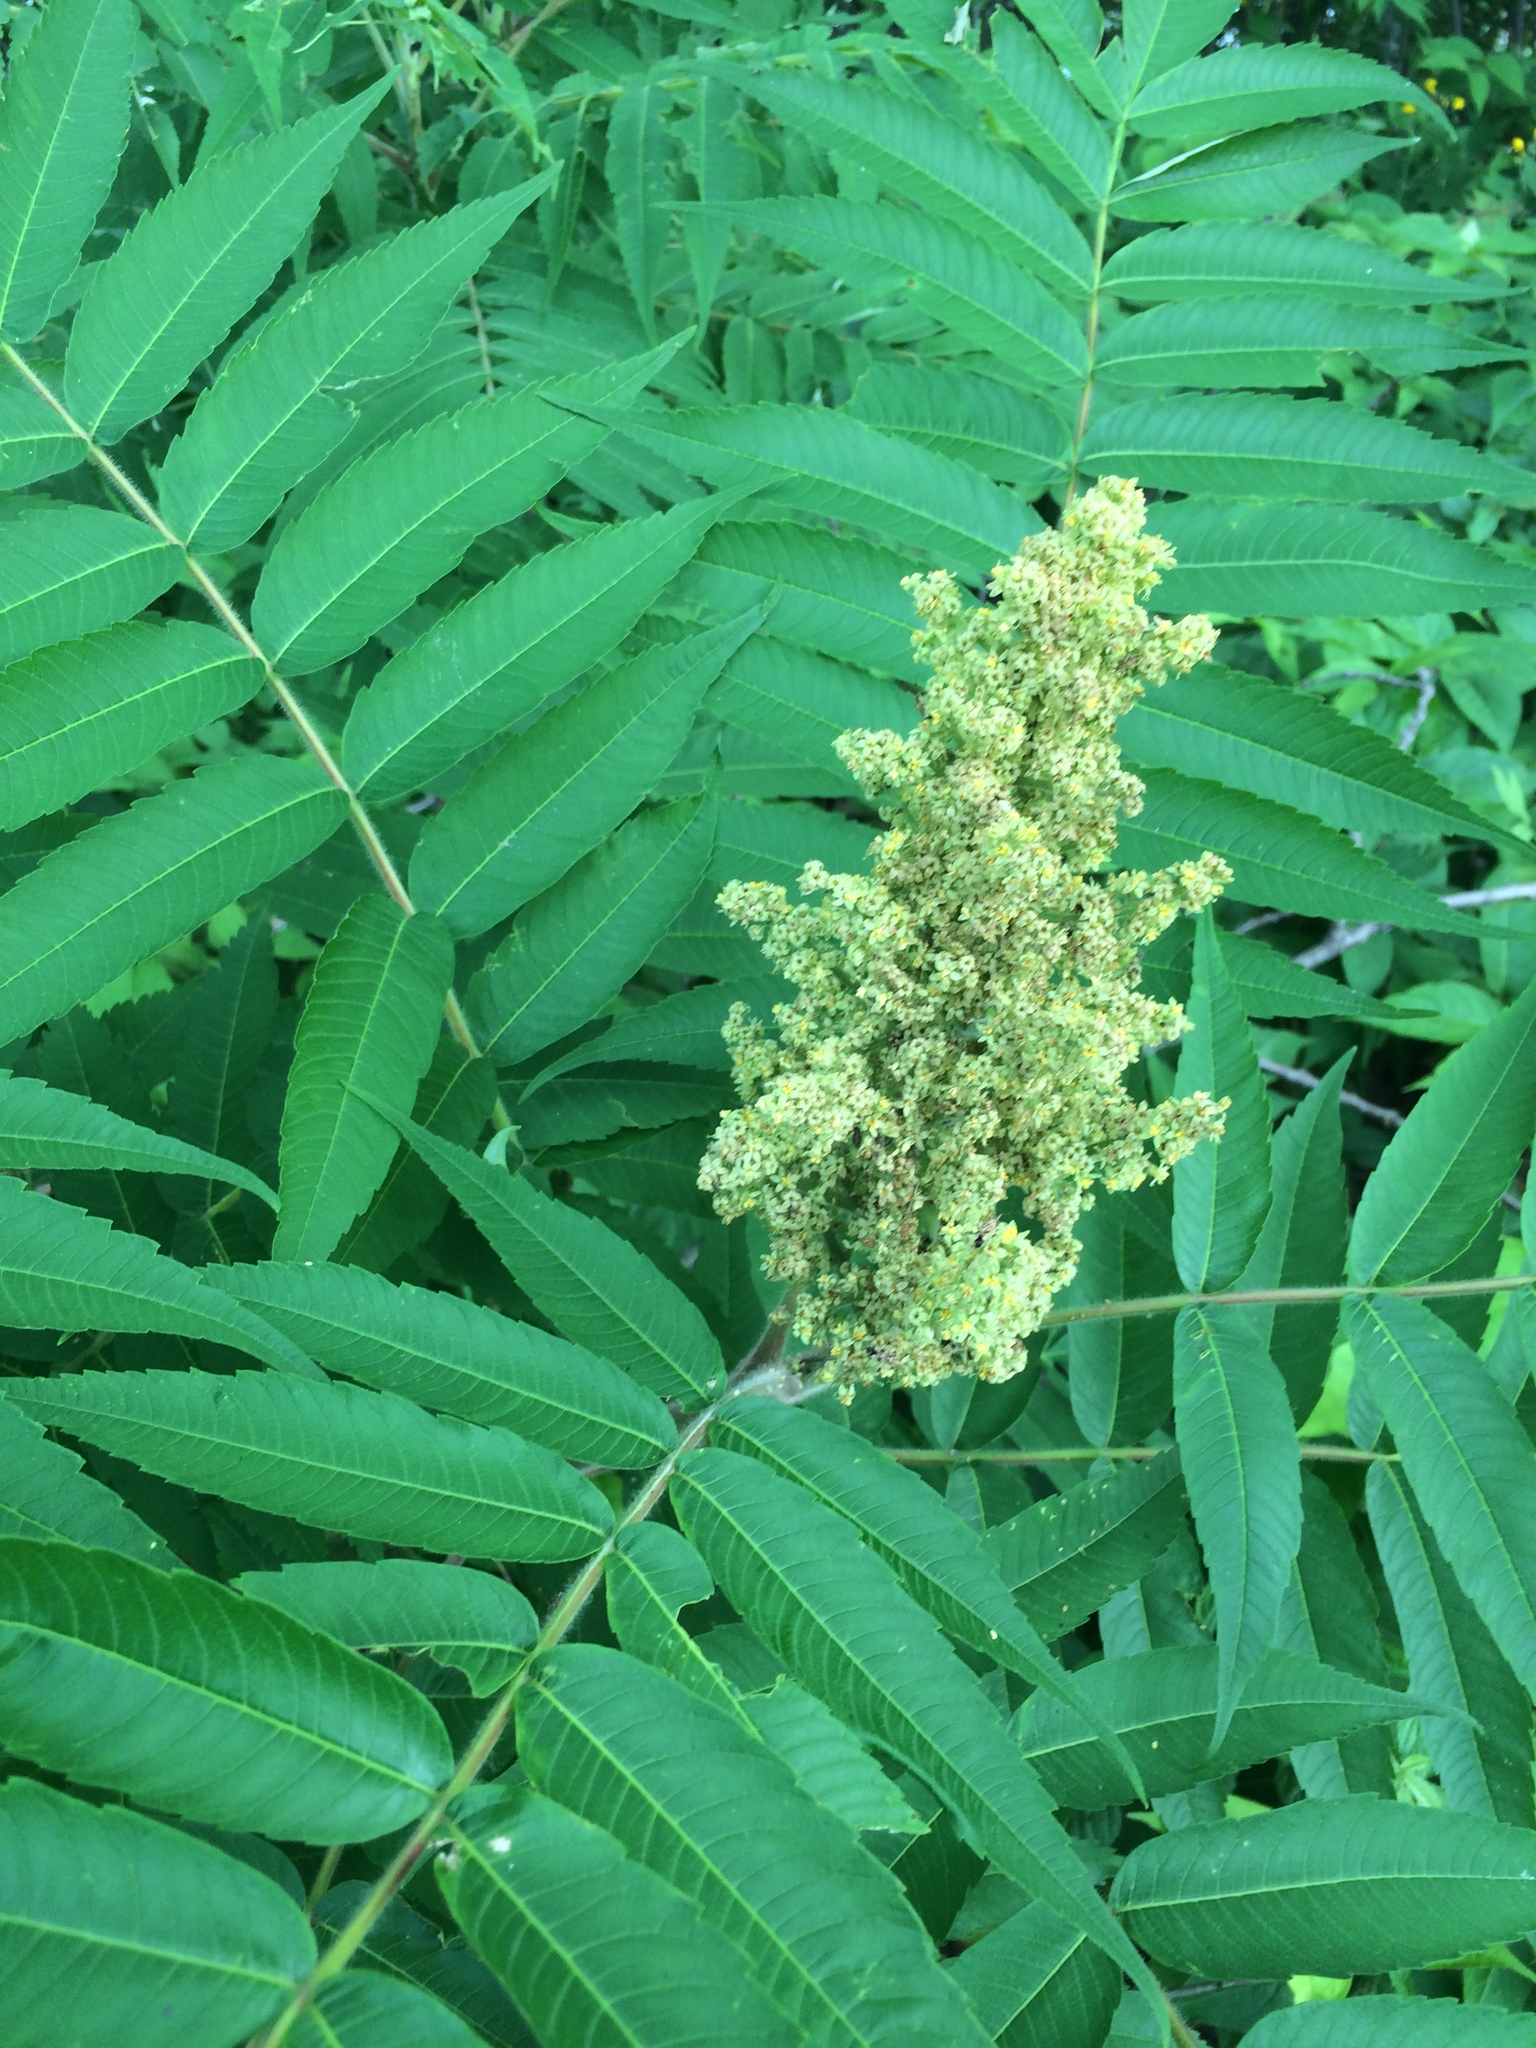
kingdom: Plantae
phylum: Tracheophyta
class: Magnoliopsida
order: Sapindales
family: Anacardiaceae
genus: Rhus
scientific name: Rhus typhina
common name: Staghorn sumac
